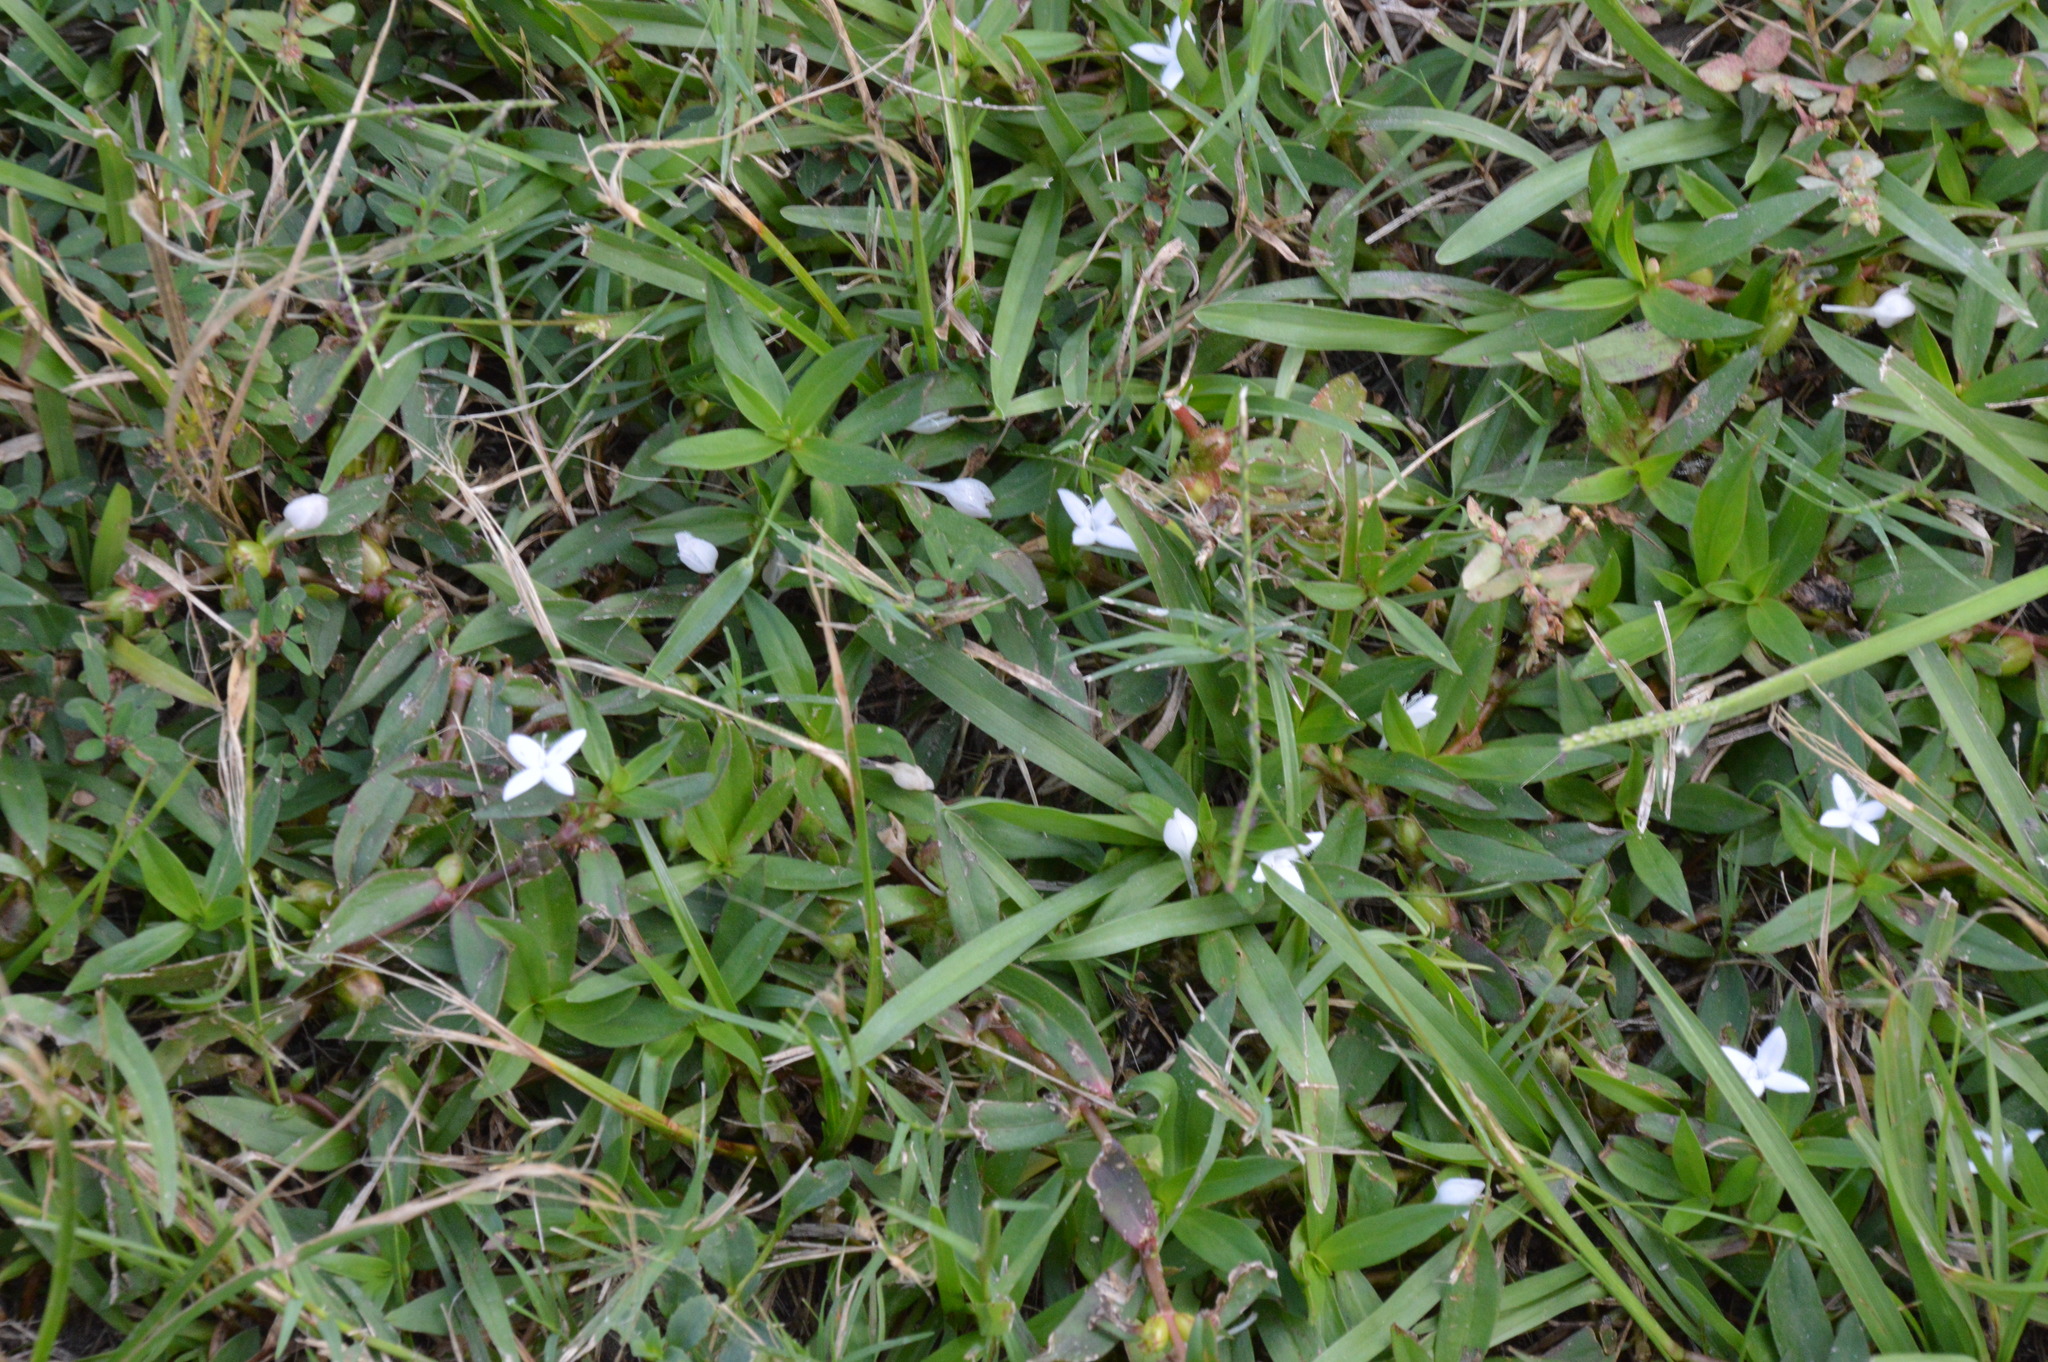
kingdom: Plantae
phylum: Tracheophyta
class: Magnoliopsida
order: Gentianales
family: Rubiaceae
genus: Diodia
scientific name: Diodia virginiana
